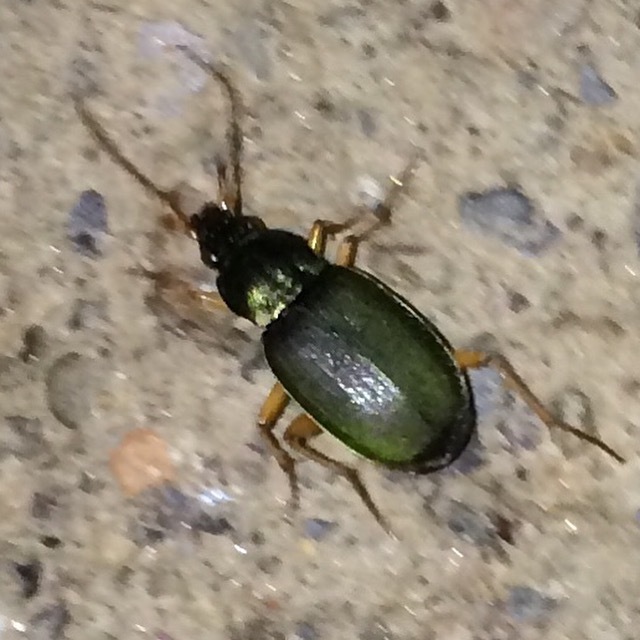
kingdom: Animalia
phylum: Arthropoda
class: Insecta
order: Coleoptera
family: Carabidae
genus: Chlaenius
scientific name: Chlaenius sericeus
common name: Green pubescent ground beetle
